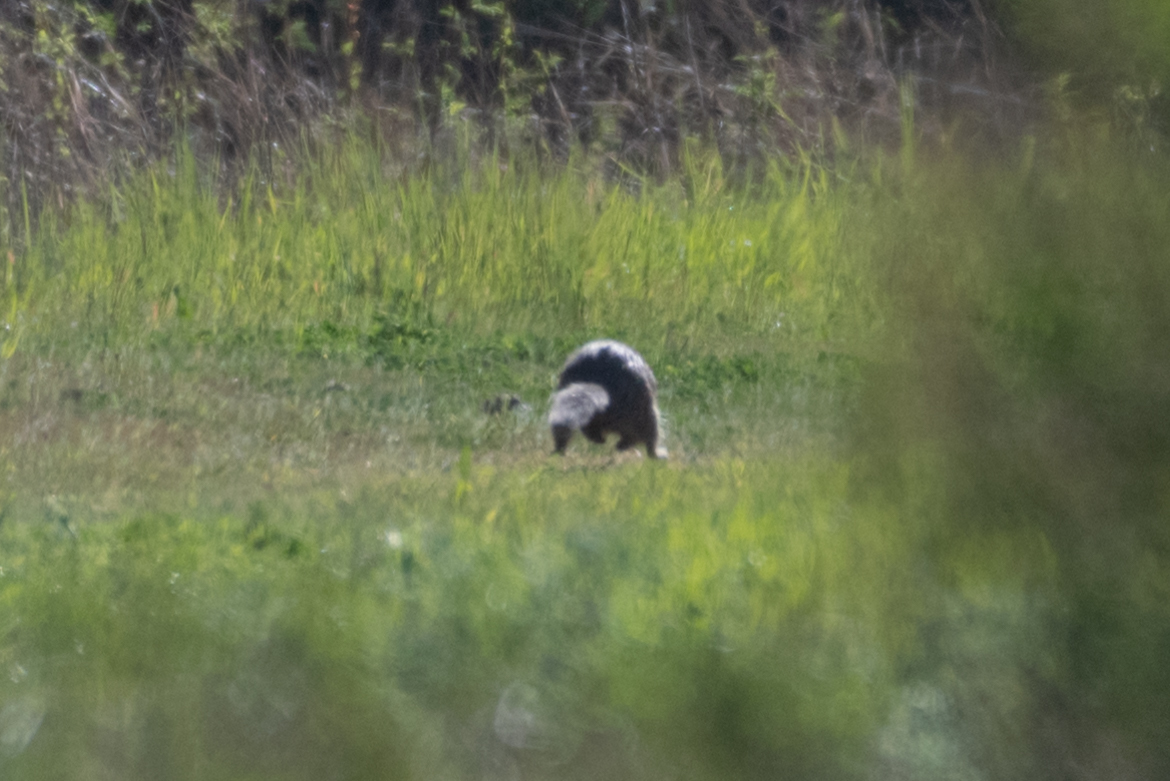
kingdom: Animalia
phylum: Chordata
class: Mammalia
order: Rodentia
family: Sciuridae
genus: Otospermophilus
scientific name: Otospermophilus beecheyi
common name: California ground squirrel
